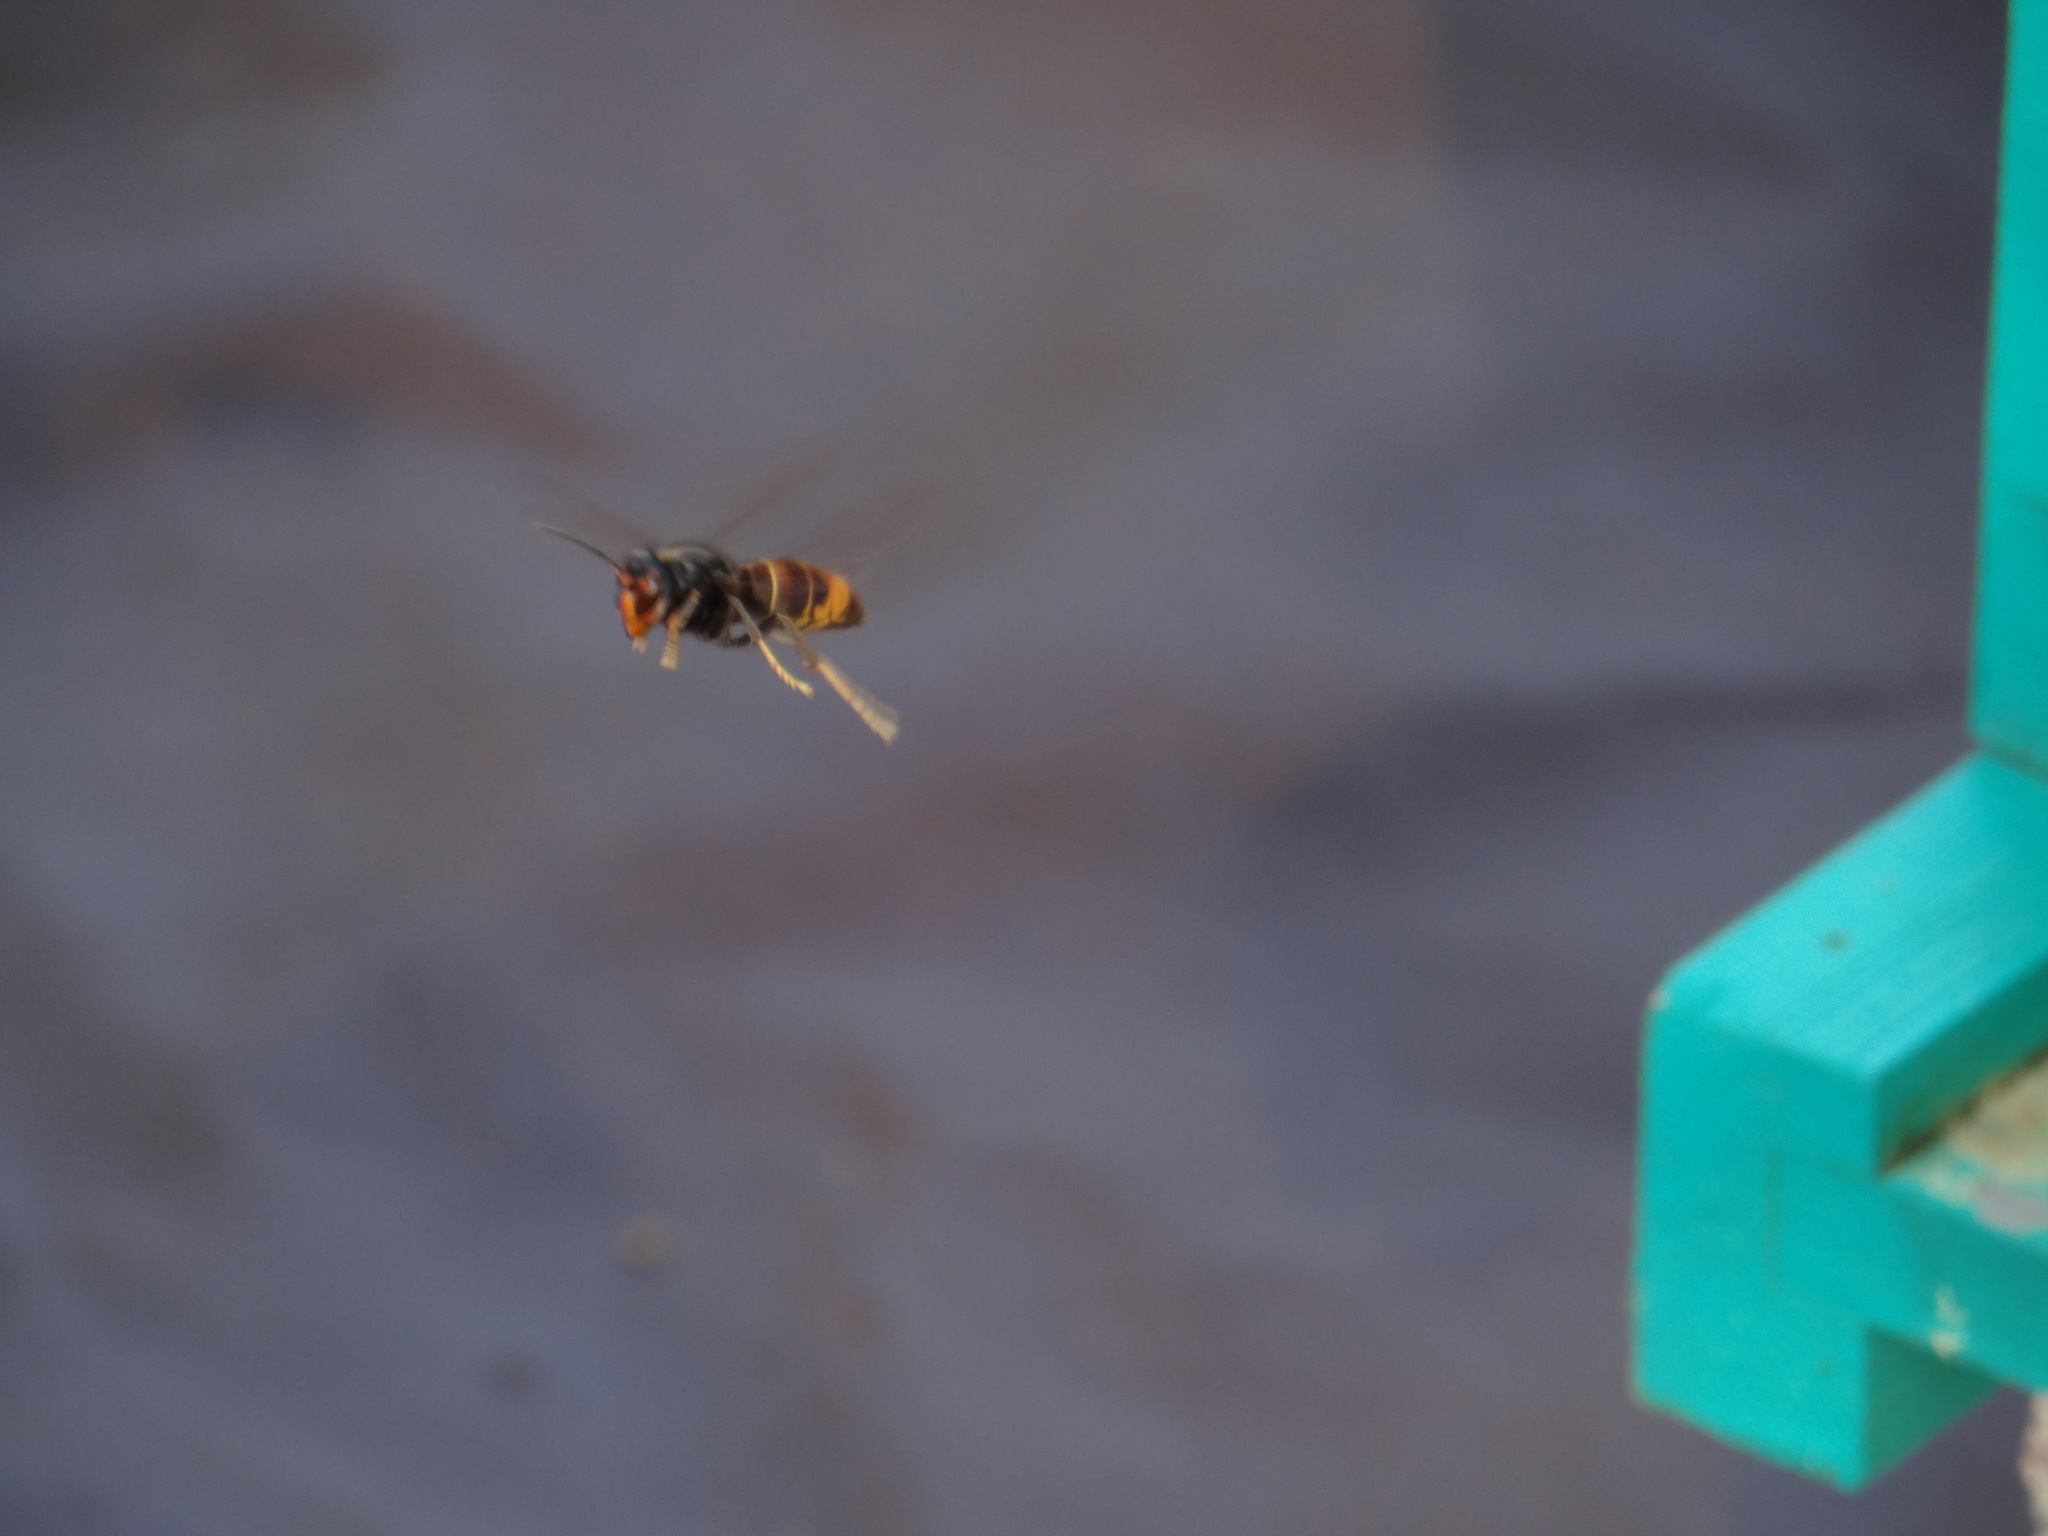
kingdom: Animalia
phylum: Arthropoda
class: Insecta
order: Hymenoptera
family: Vespidae
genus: Vespa
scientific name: Vespa velutina
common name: Asian hornet
